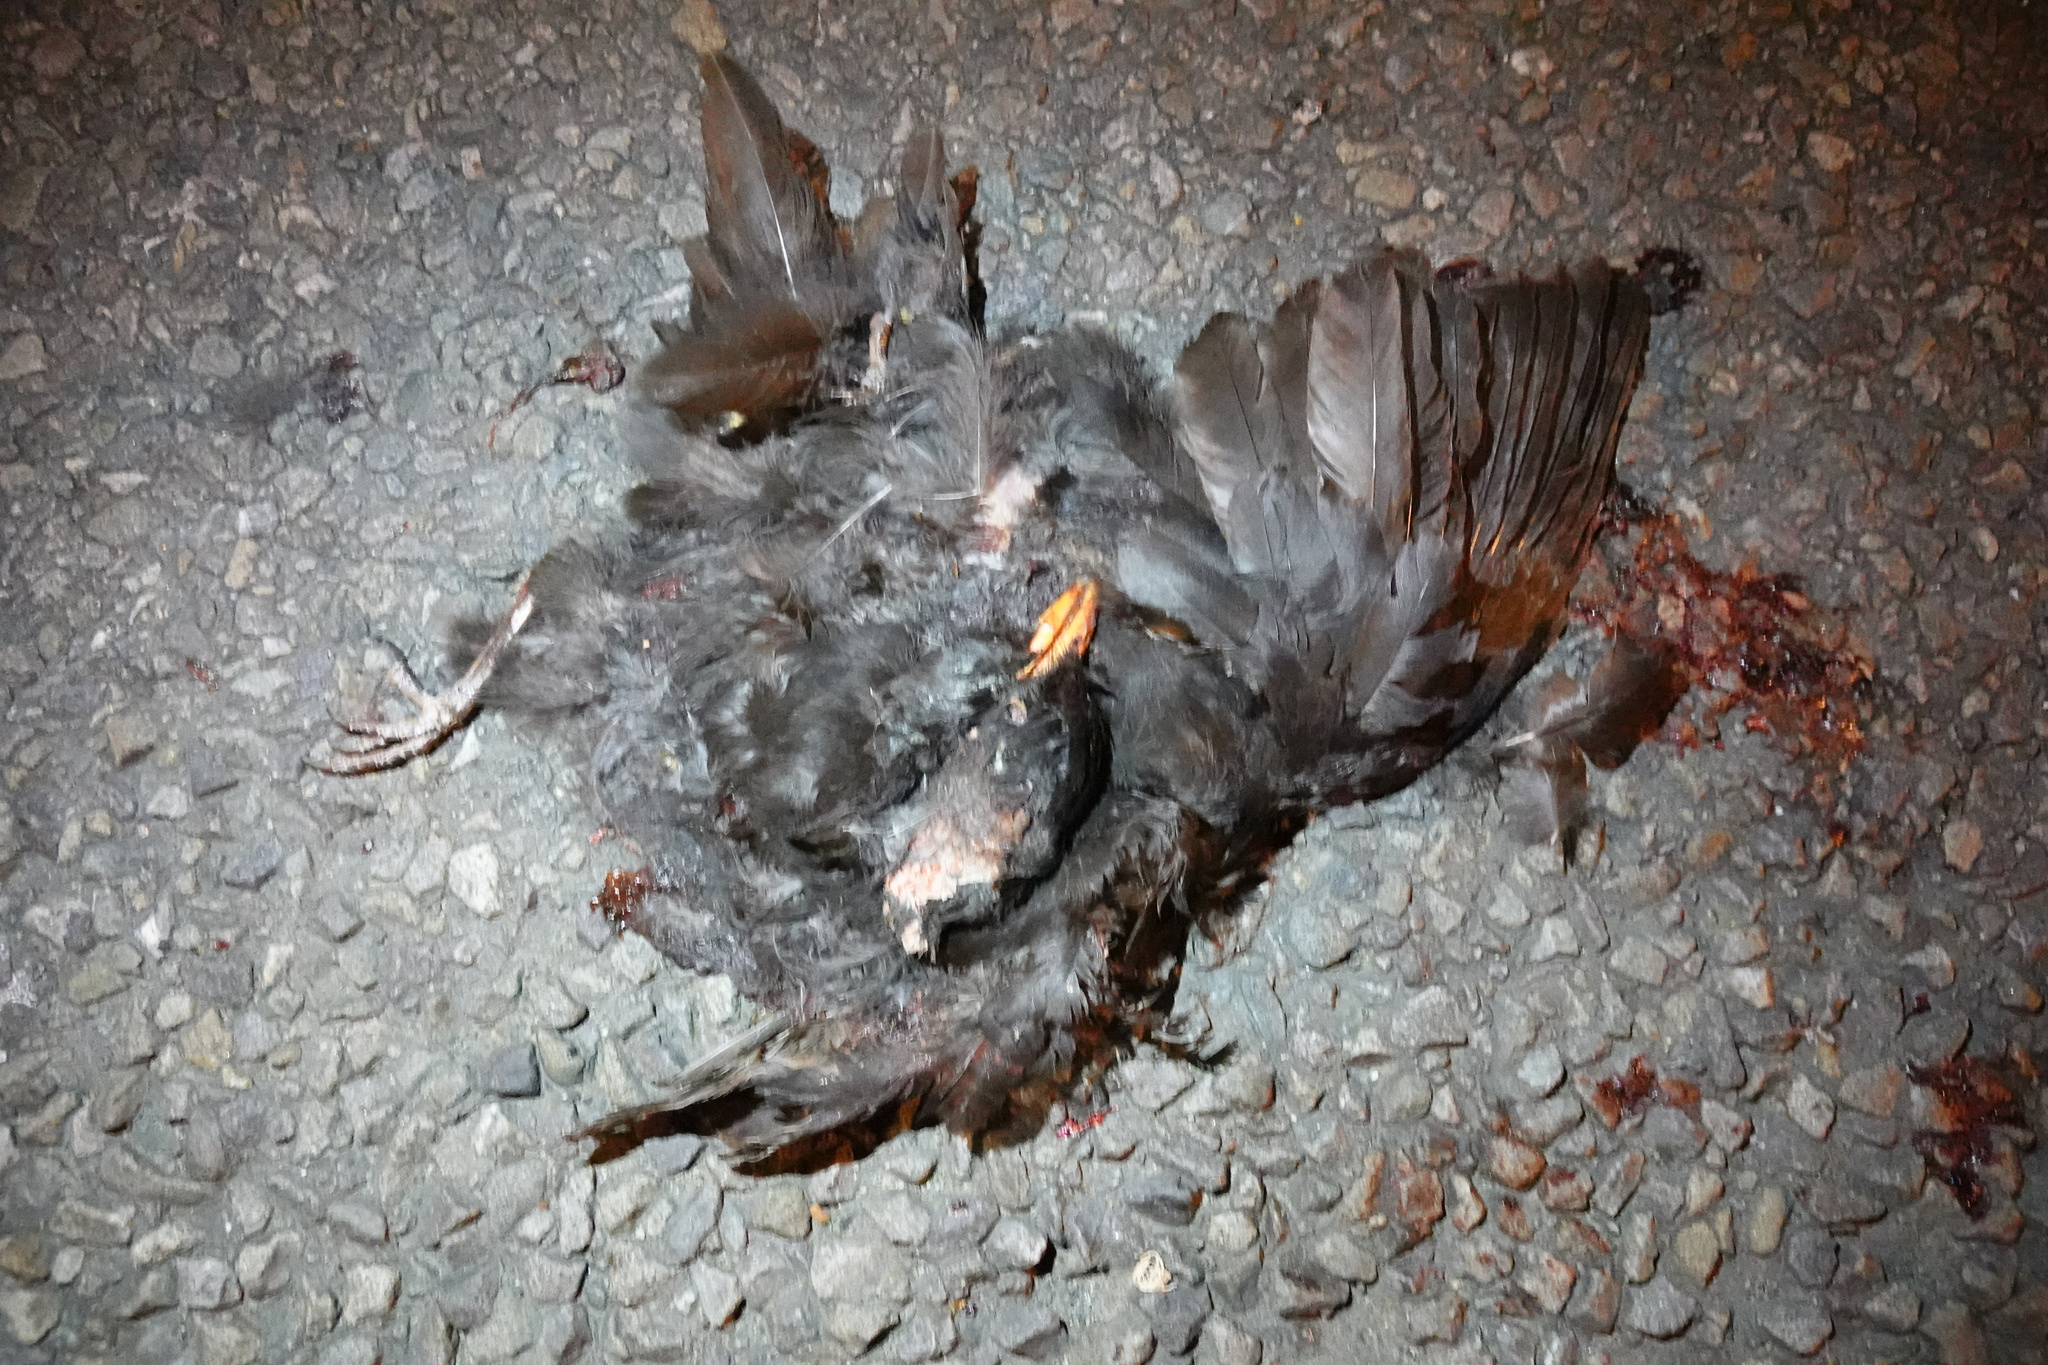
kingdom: Animalia
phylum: Chordata
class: Aves
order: Passeriformes
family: Turdidae
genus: Turdus
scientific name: Turdus merula
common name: Common blackbird
